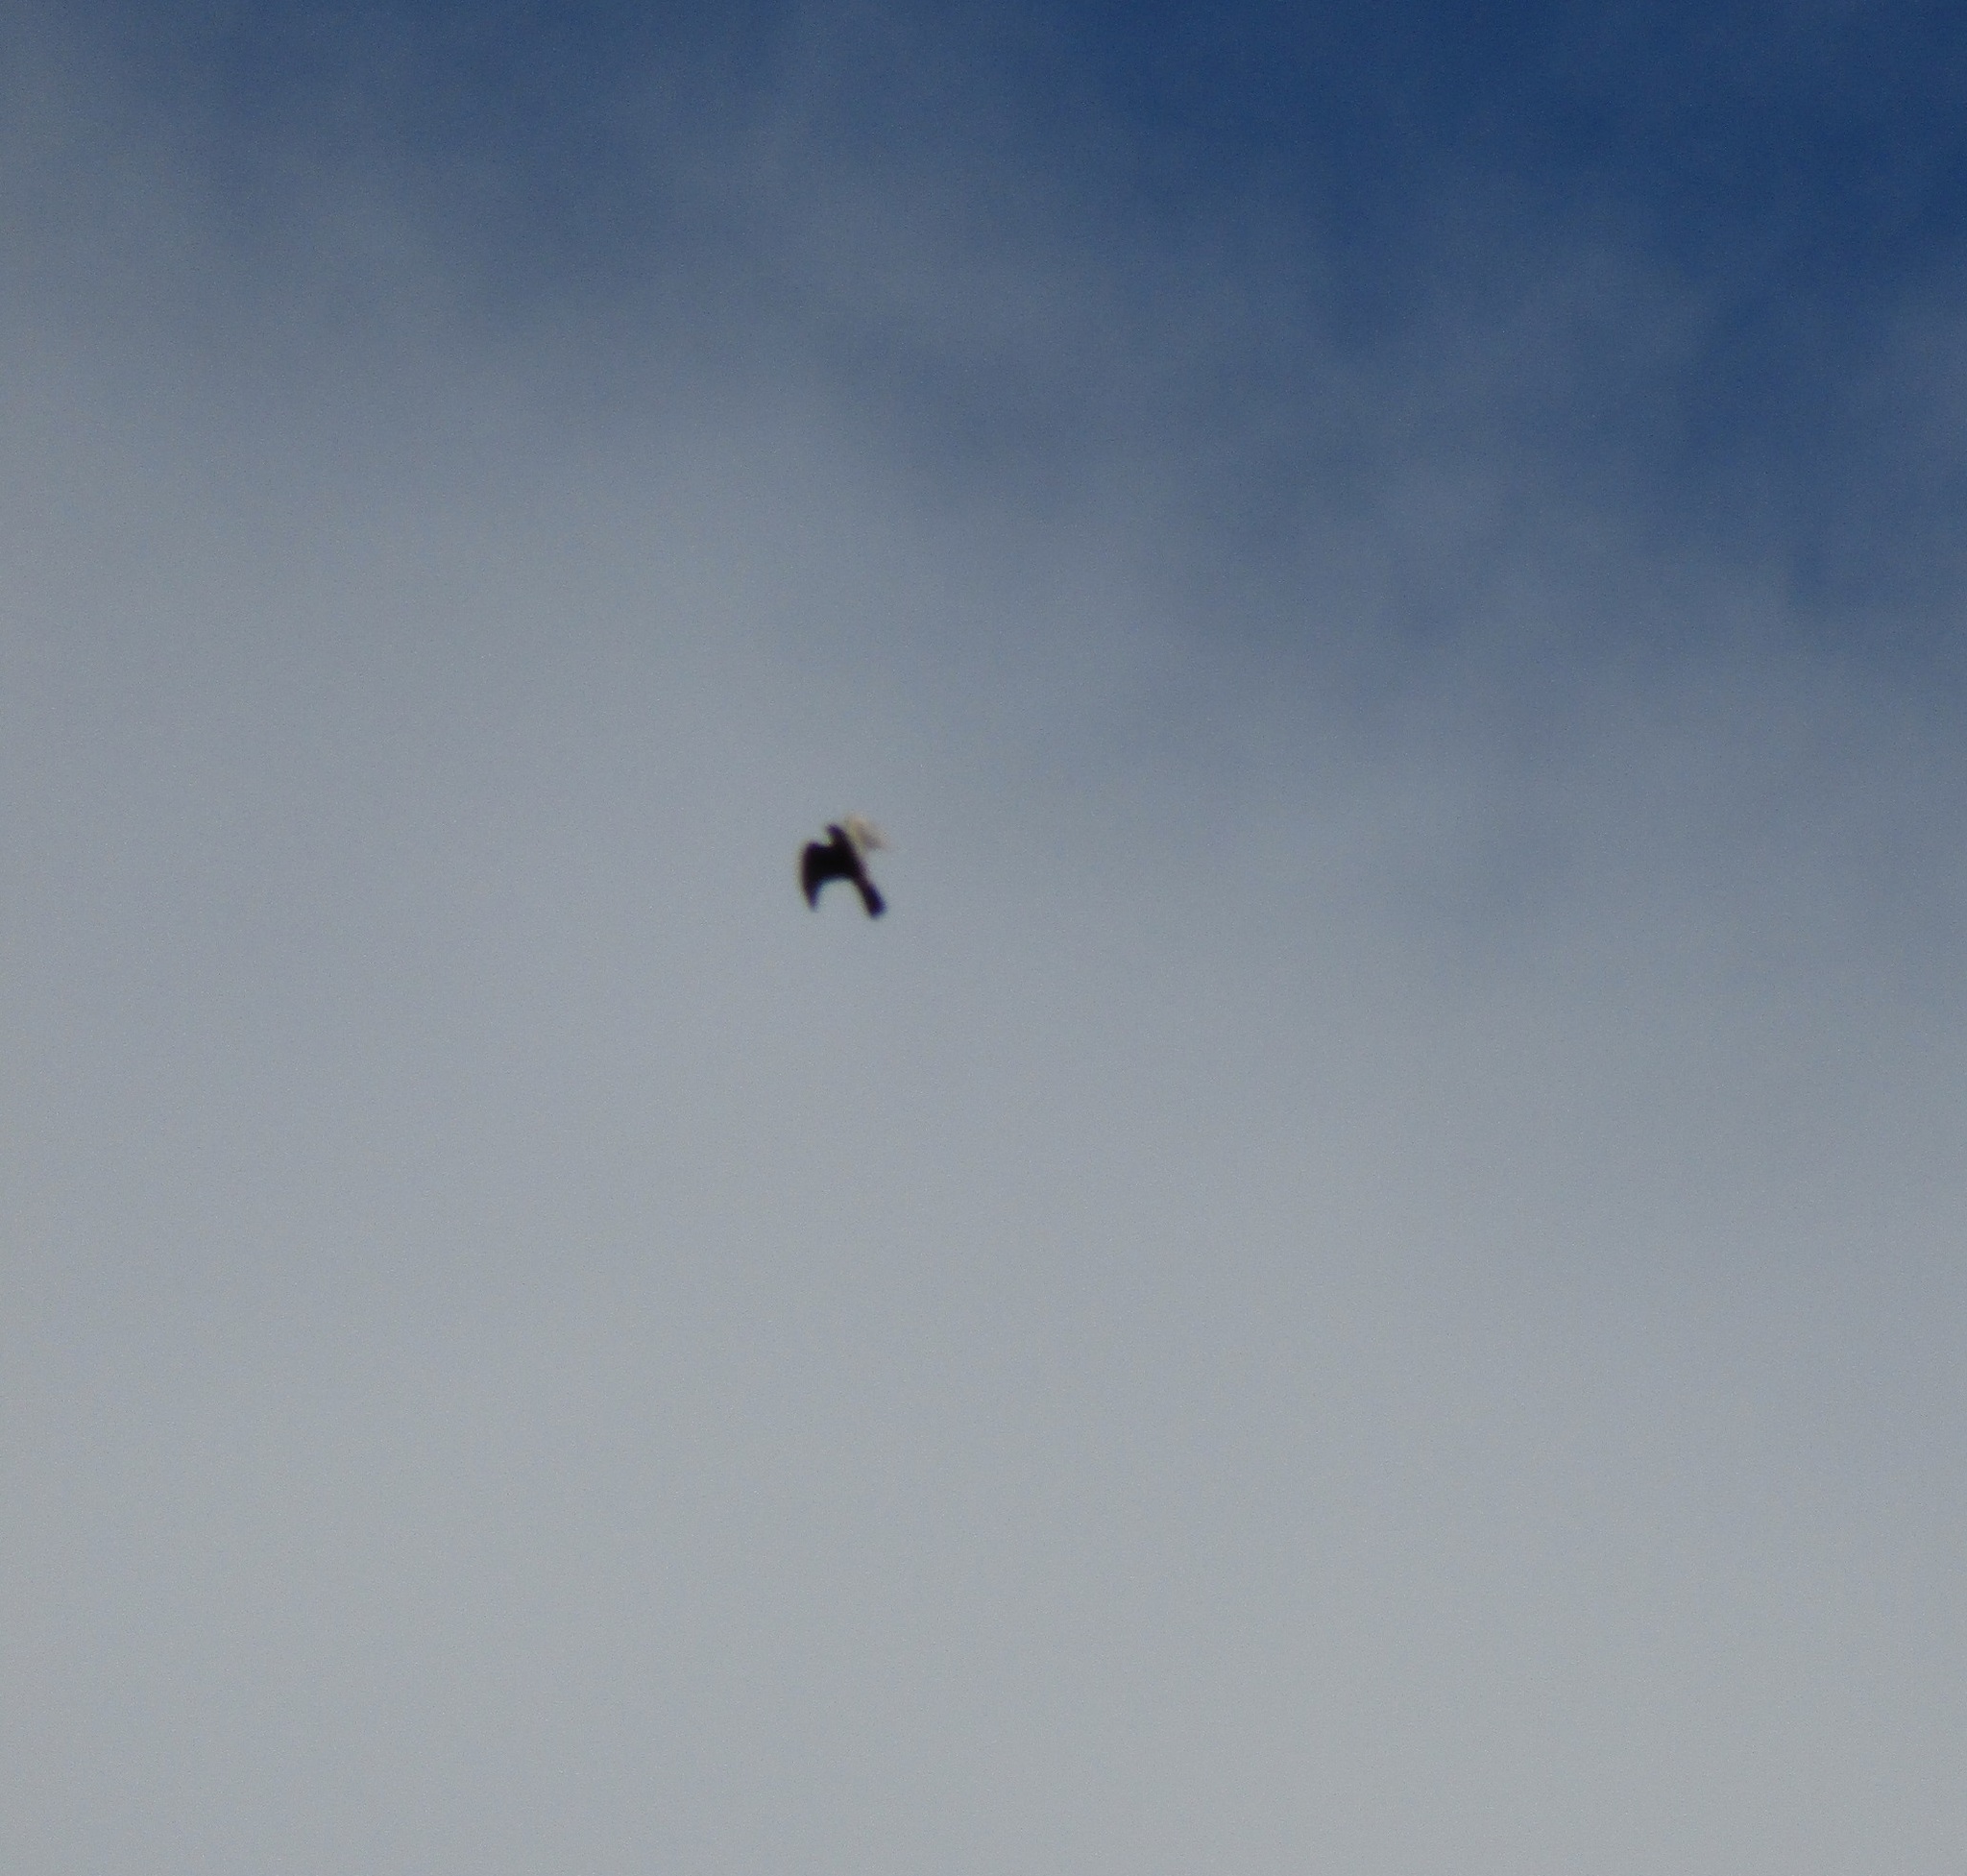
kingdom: Animalia
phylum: Chordata
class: Aves
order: Falconiformes
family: Falconidae
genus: Falco
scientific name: Falco novaeseelandiae
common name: New zealand falcon
